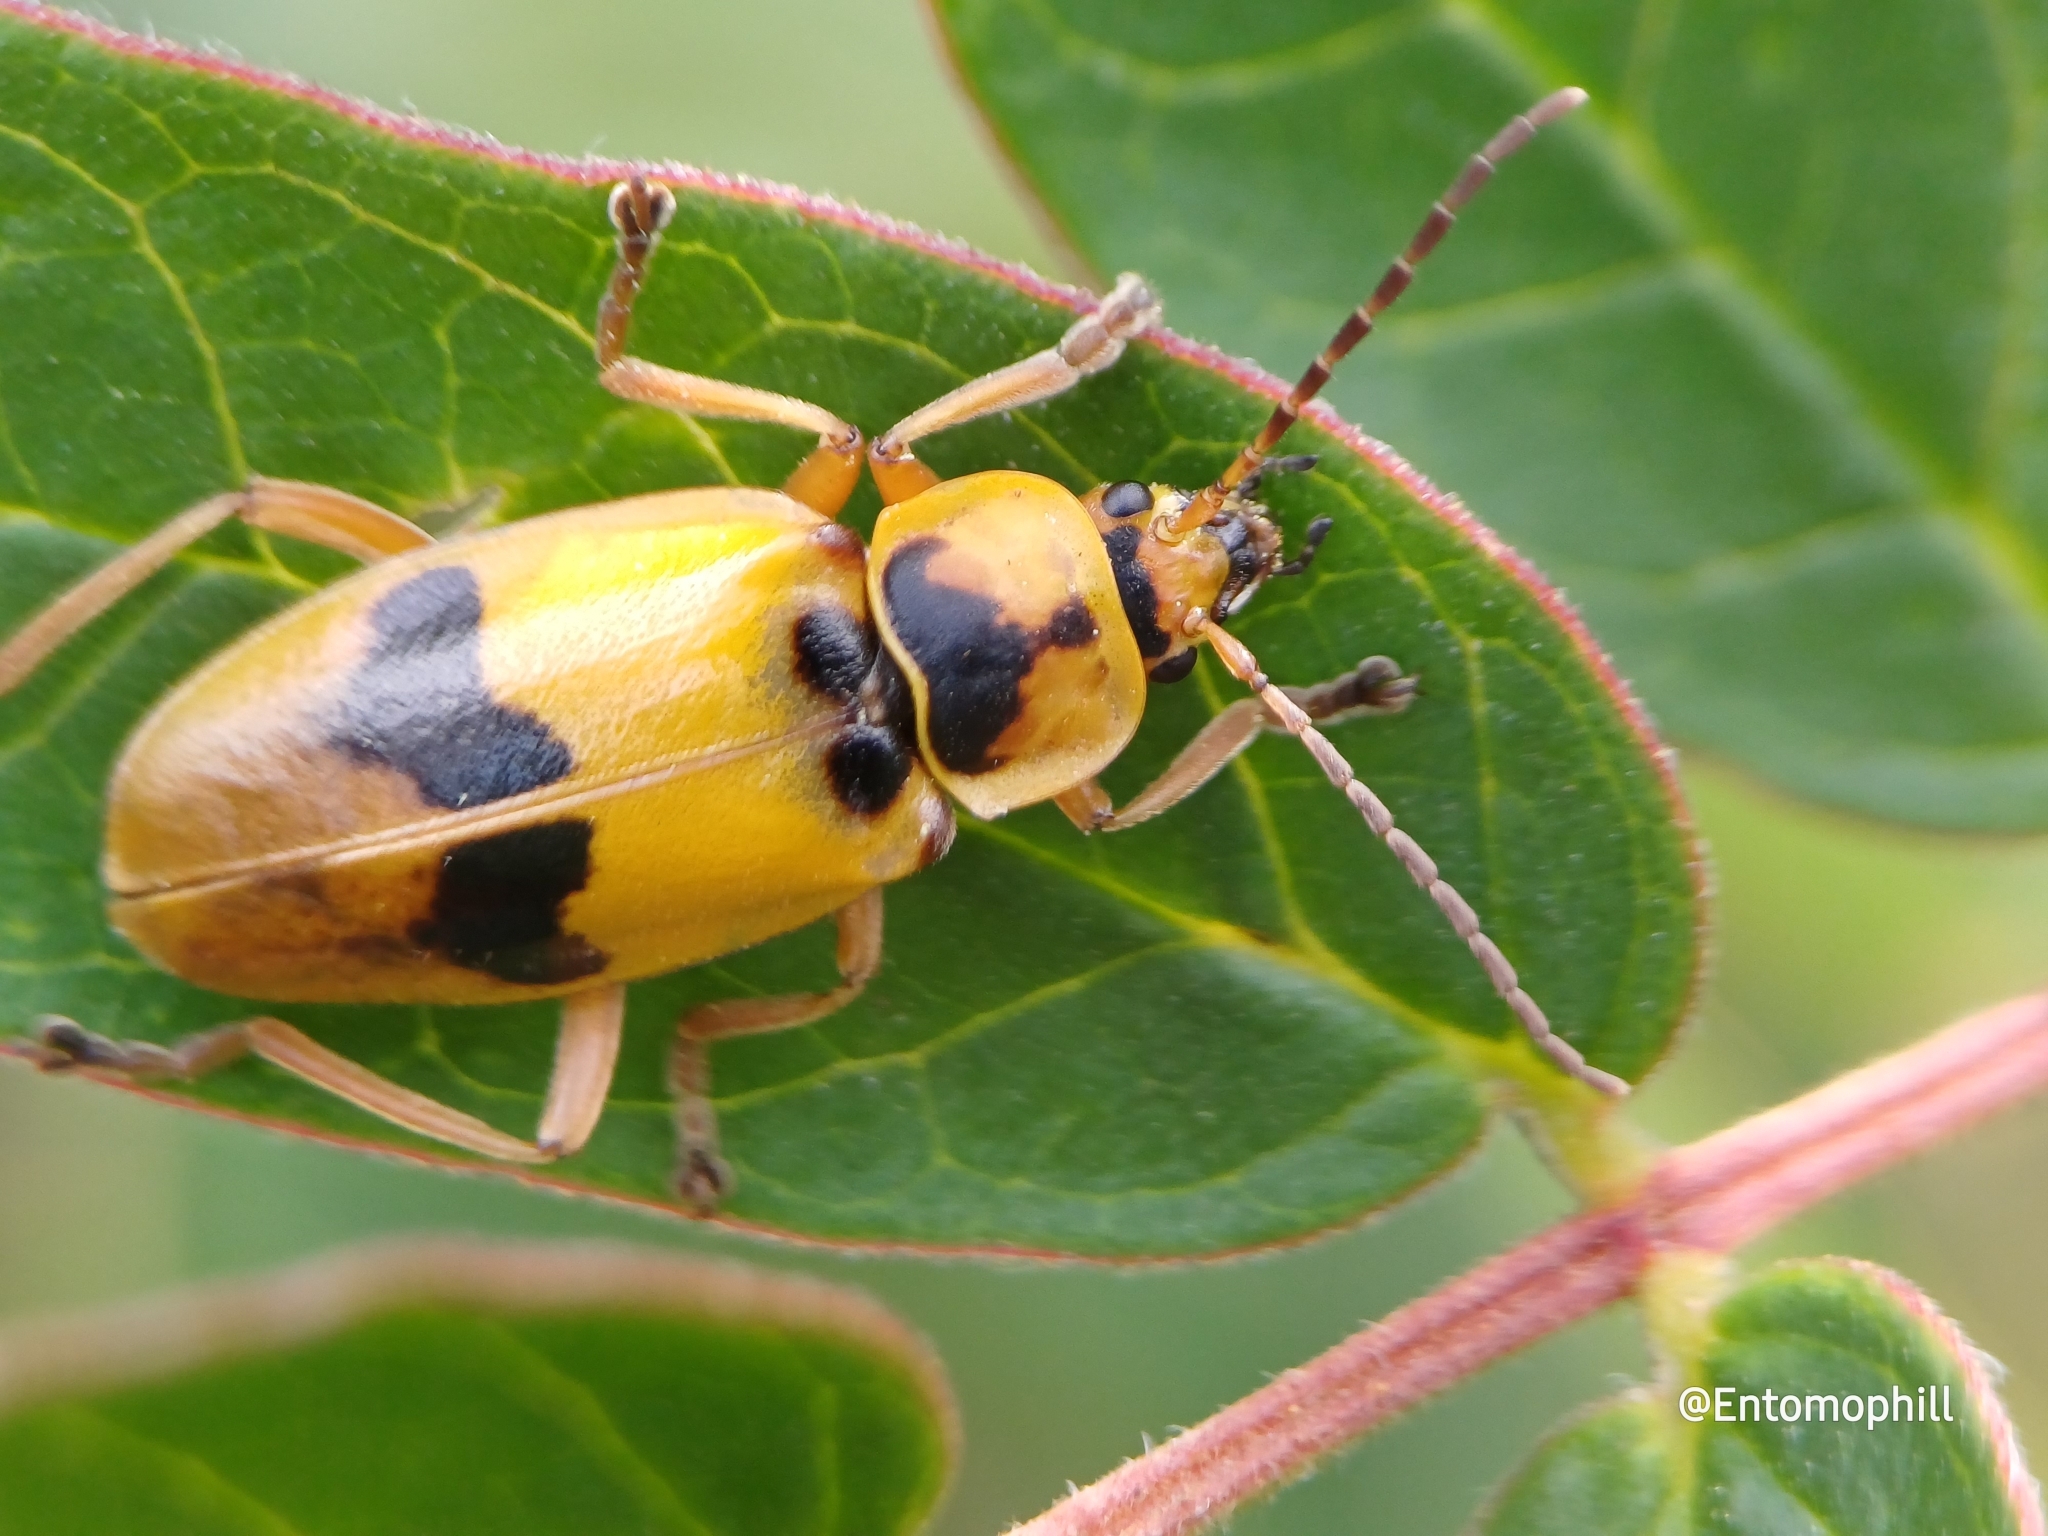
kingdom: Animalia
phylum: Arthropoda
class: Insecta
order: Coleoptera
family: Cantharidae
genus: Chauliognathus
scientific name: Chauliognathus
